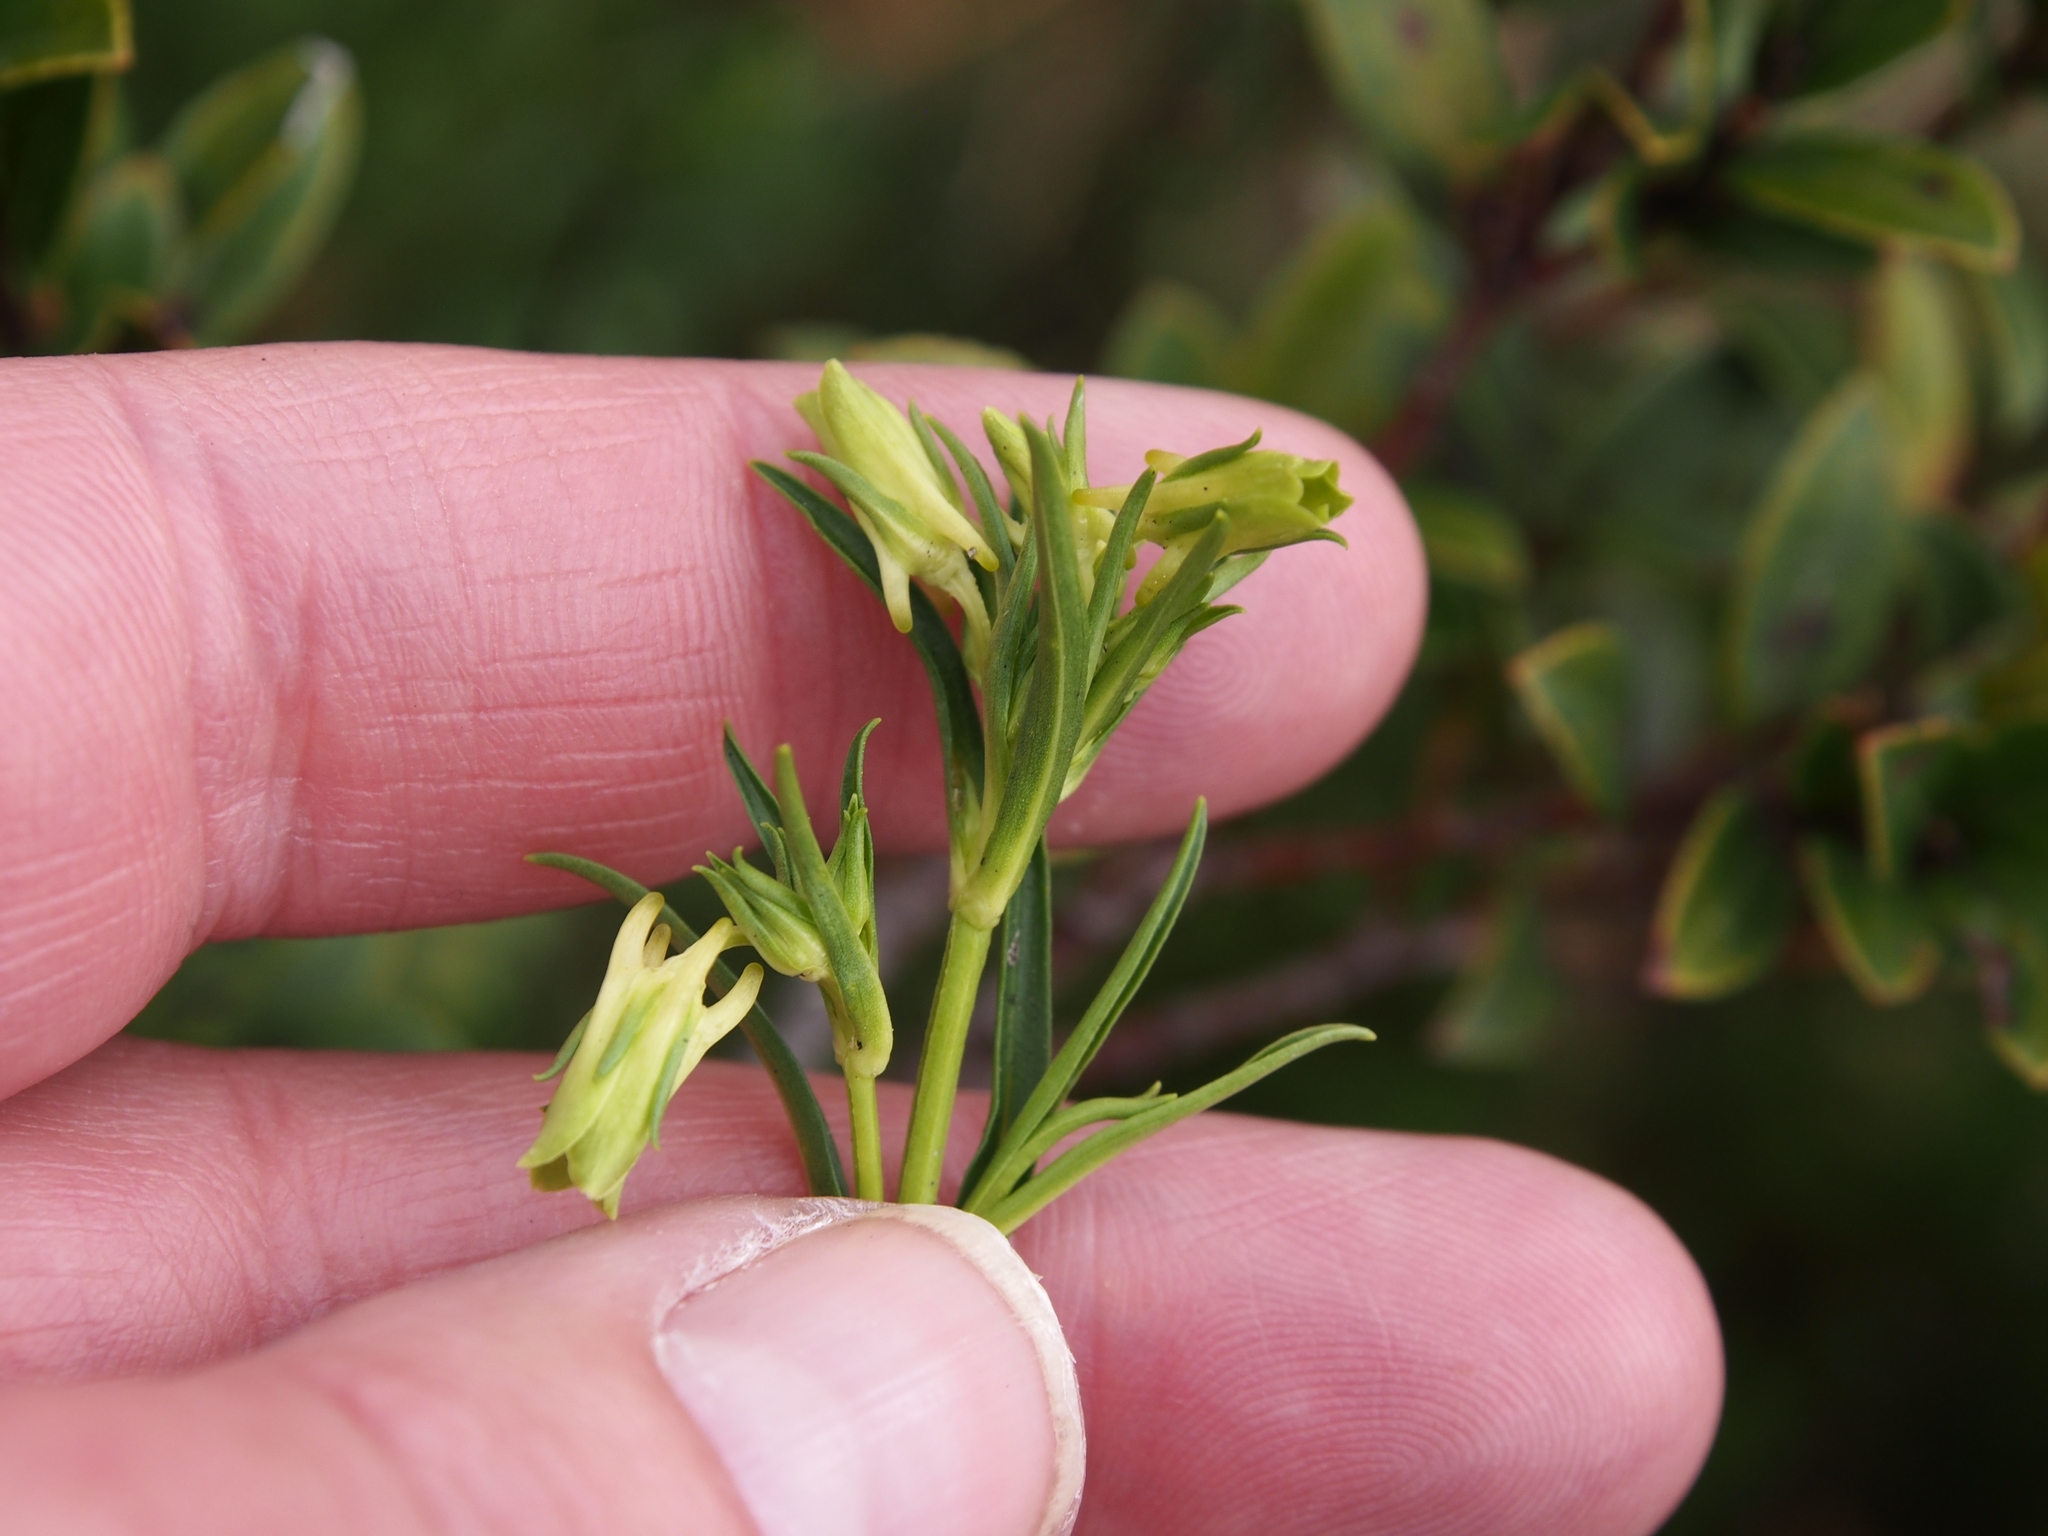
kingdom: Plantae
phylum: Tracheophyta
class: Magnoliopsida
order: Gentianales
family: Gentianaceae
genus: Halenia
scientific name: Halenia rhyacophila
